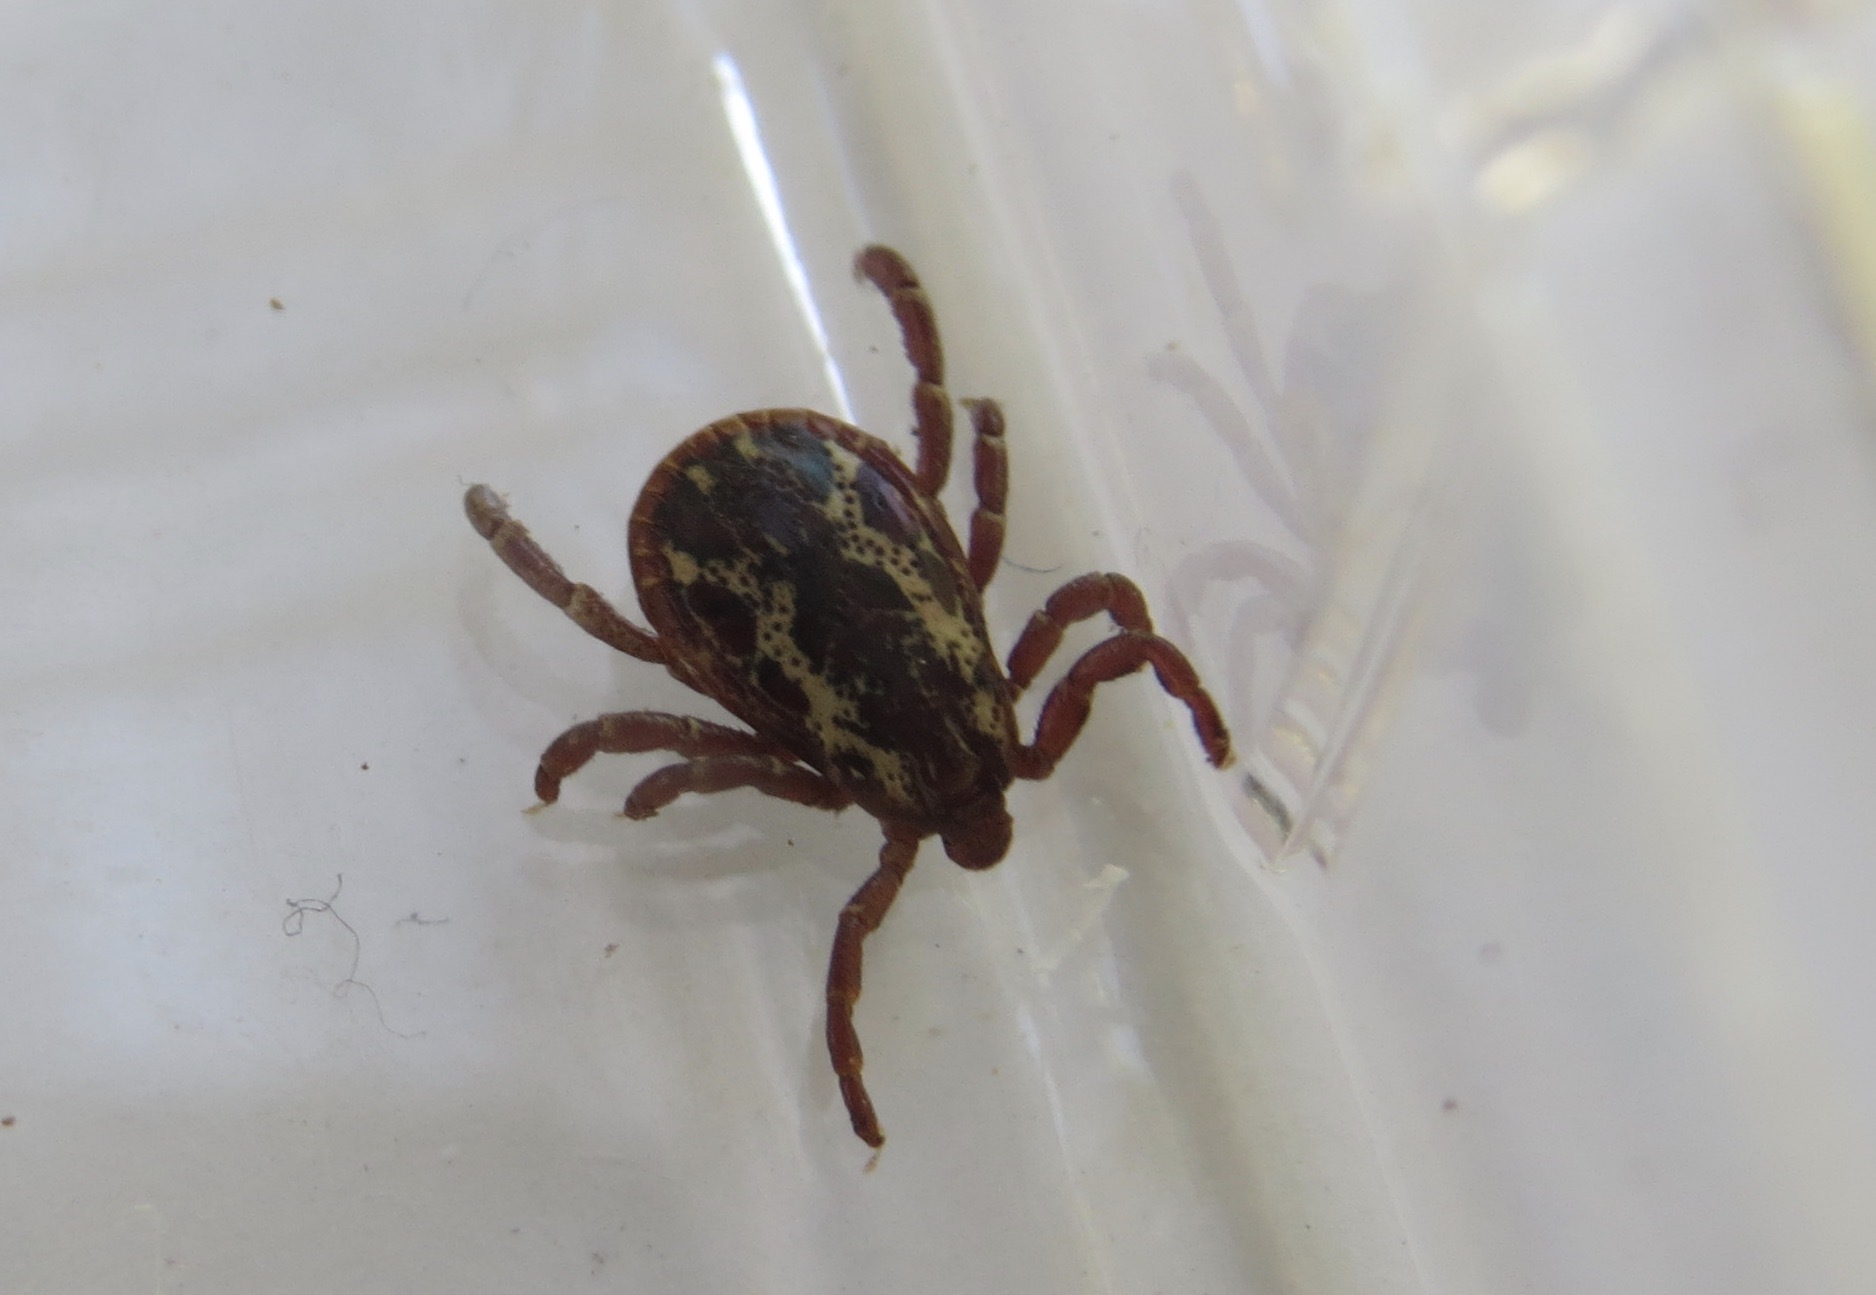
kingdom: Animalia
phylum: Arthropoda
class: Arachnida
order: Ixodida
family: Ixodidae
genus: Dermacentor
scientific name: Dermacentor variabilis
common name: American dog tick
